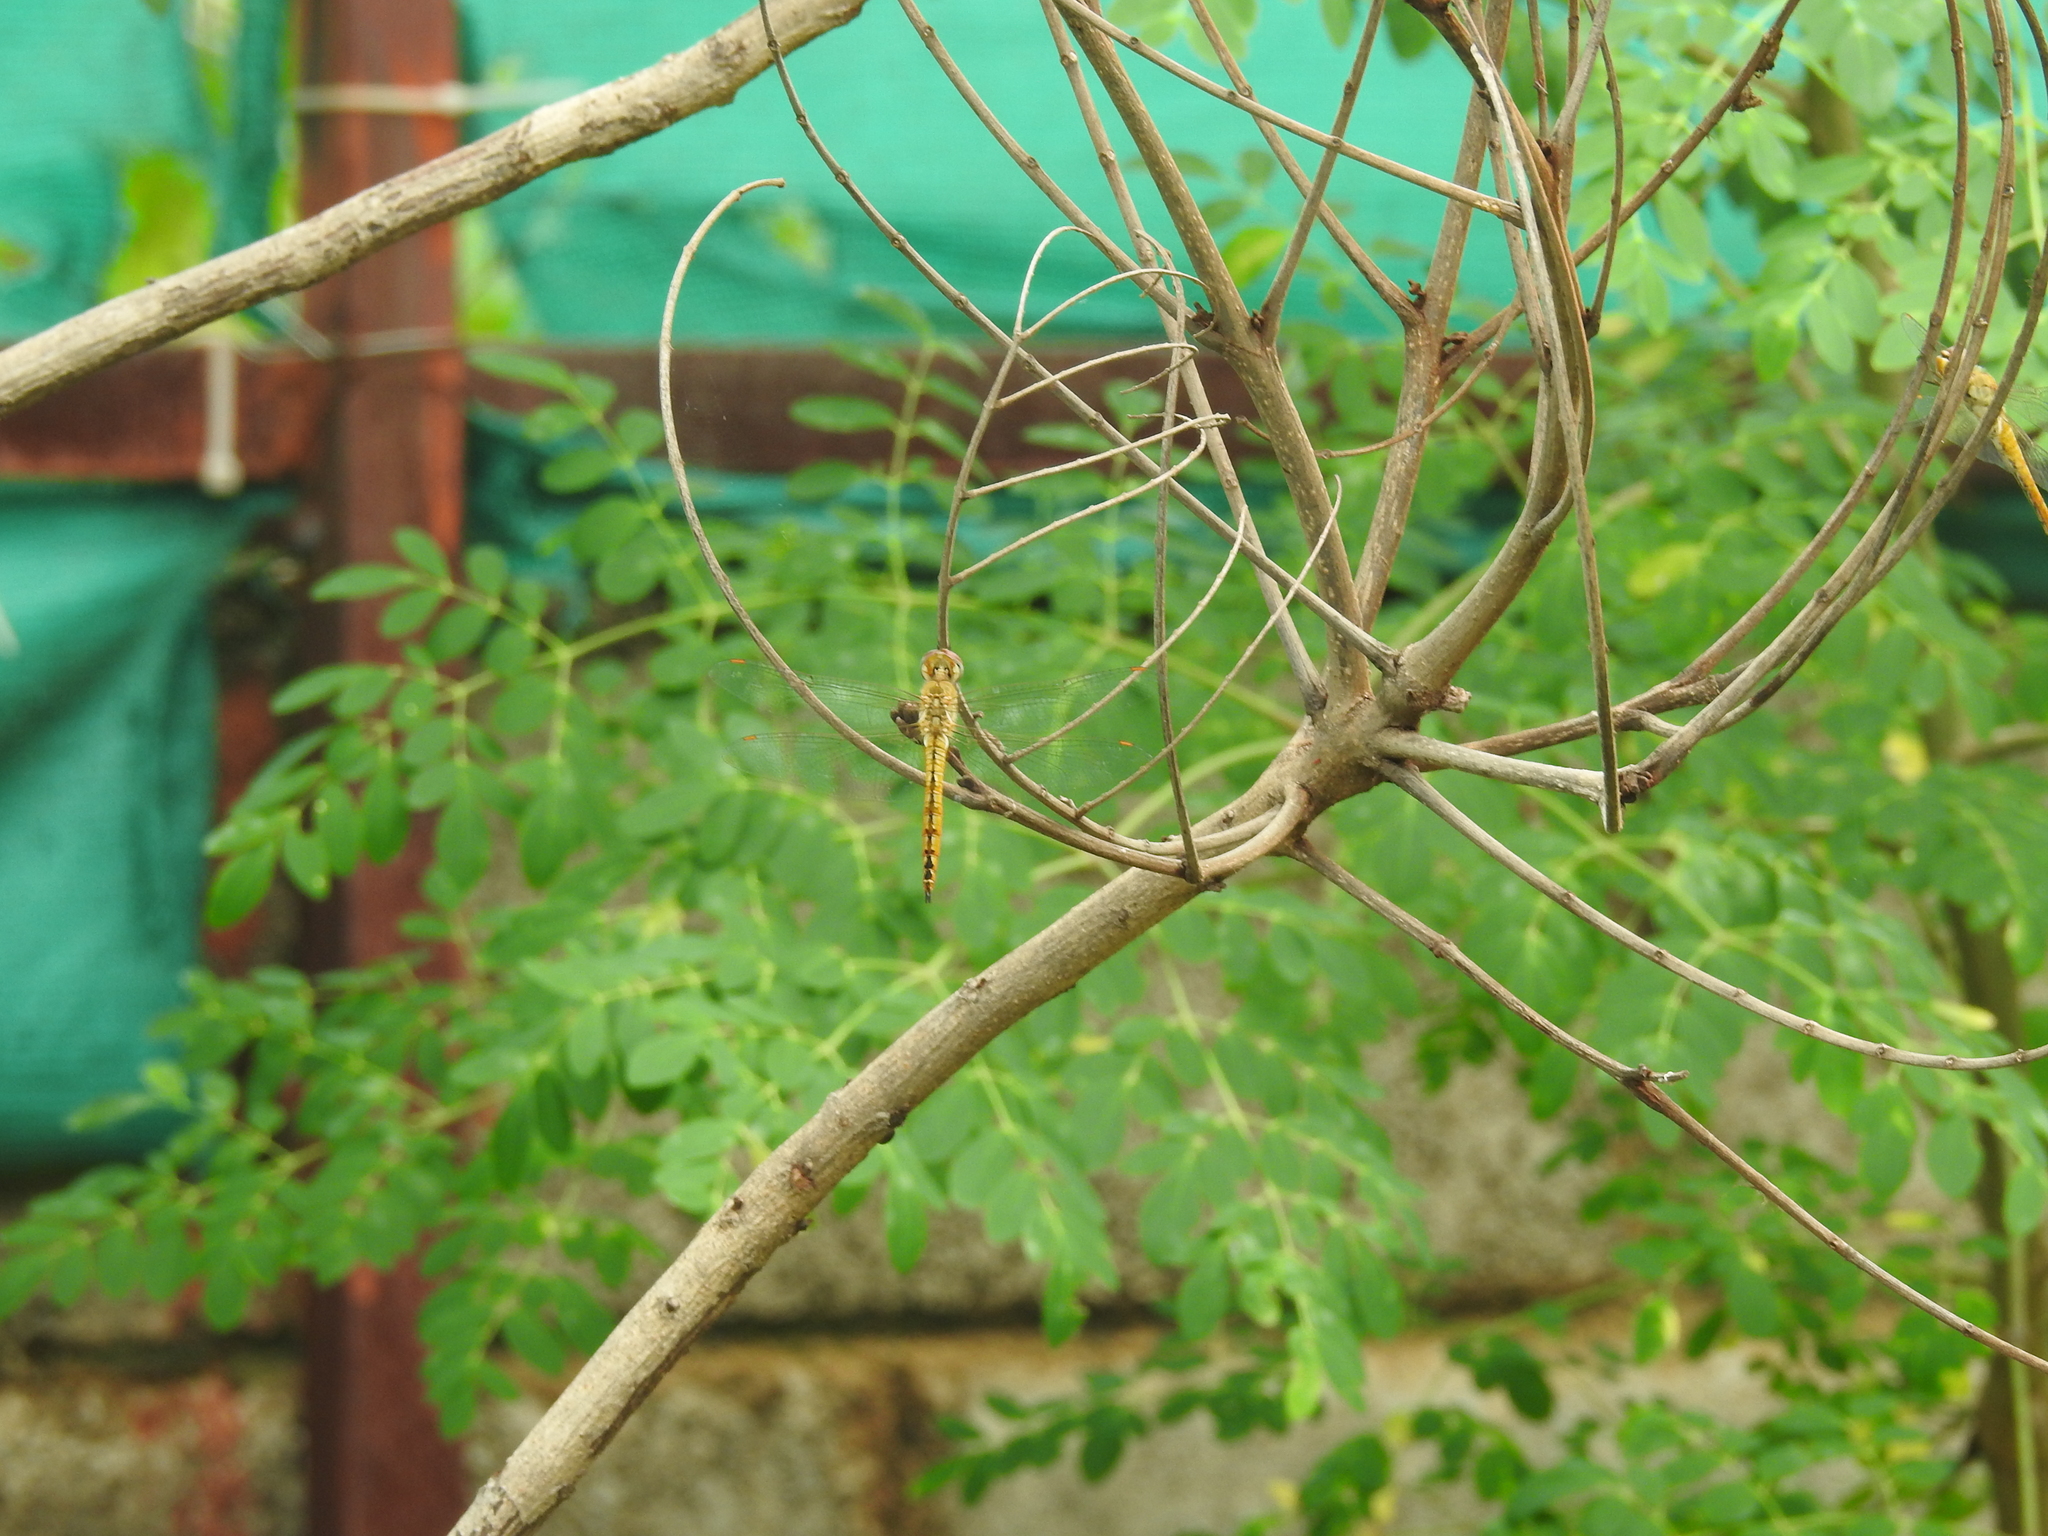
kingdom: Animalia
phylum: Arthropoda
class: Insecta
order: Odonata
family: Libellulidae
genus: Pantala
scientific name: Pantala flavescens
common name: Wandering glider
